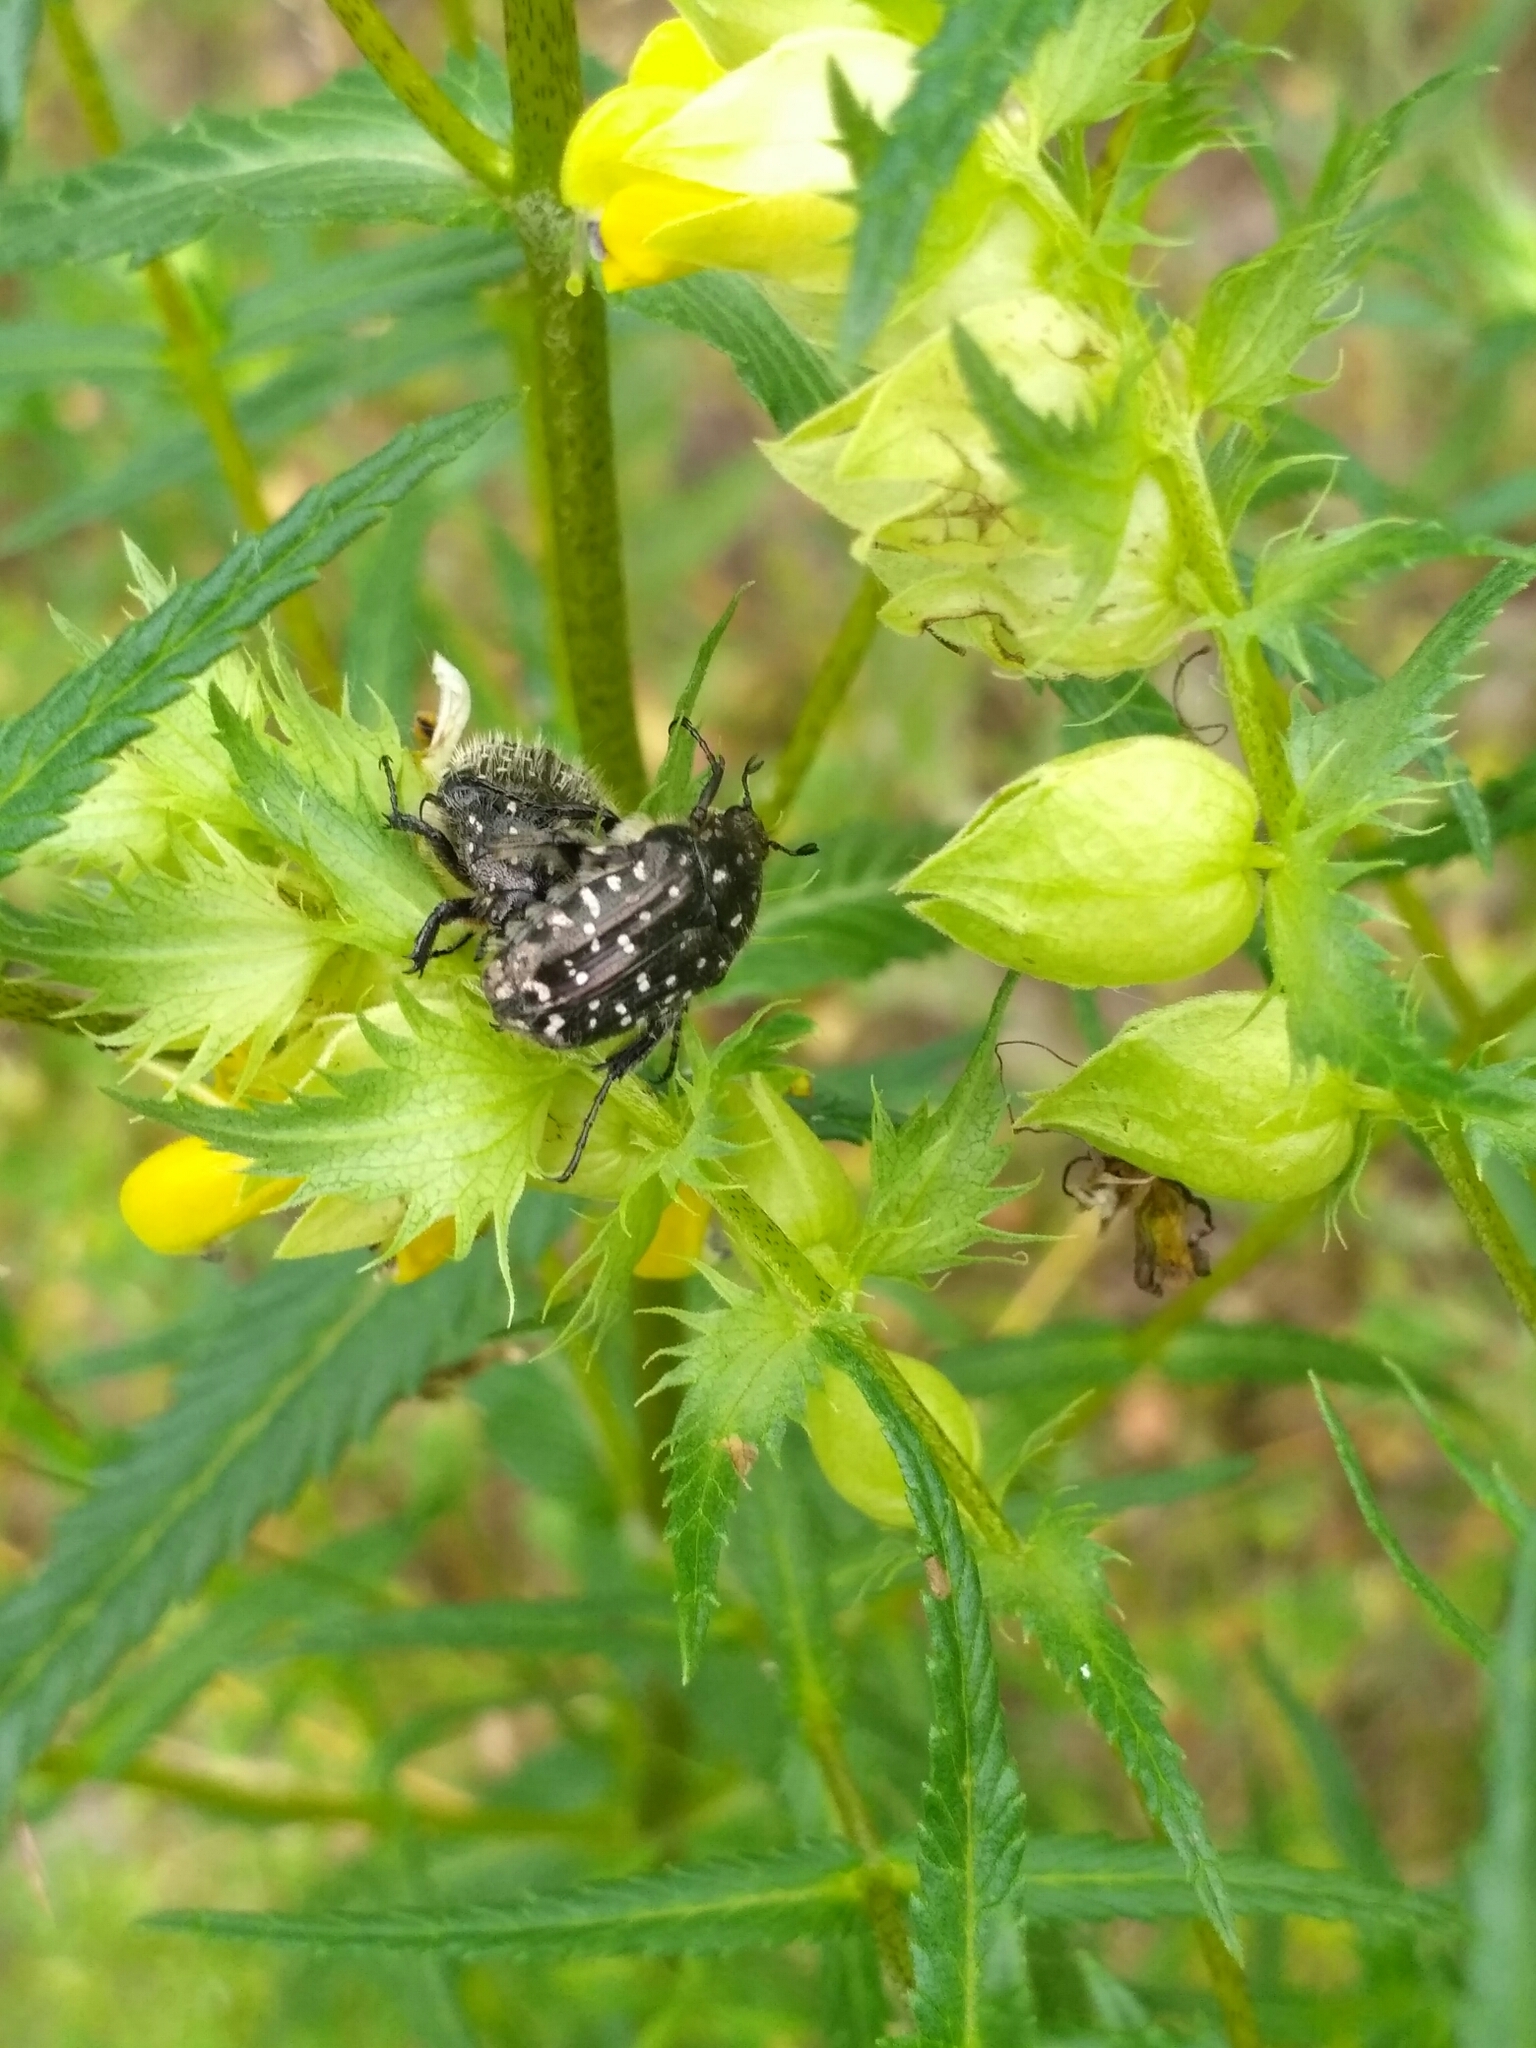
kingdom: Animalia
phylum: Arthropoda
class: Insecta
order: Coleoptera
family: Scarabaeidae
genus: Oxythyrea
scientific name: Oxythyrea funesta
